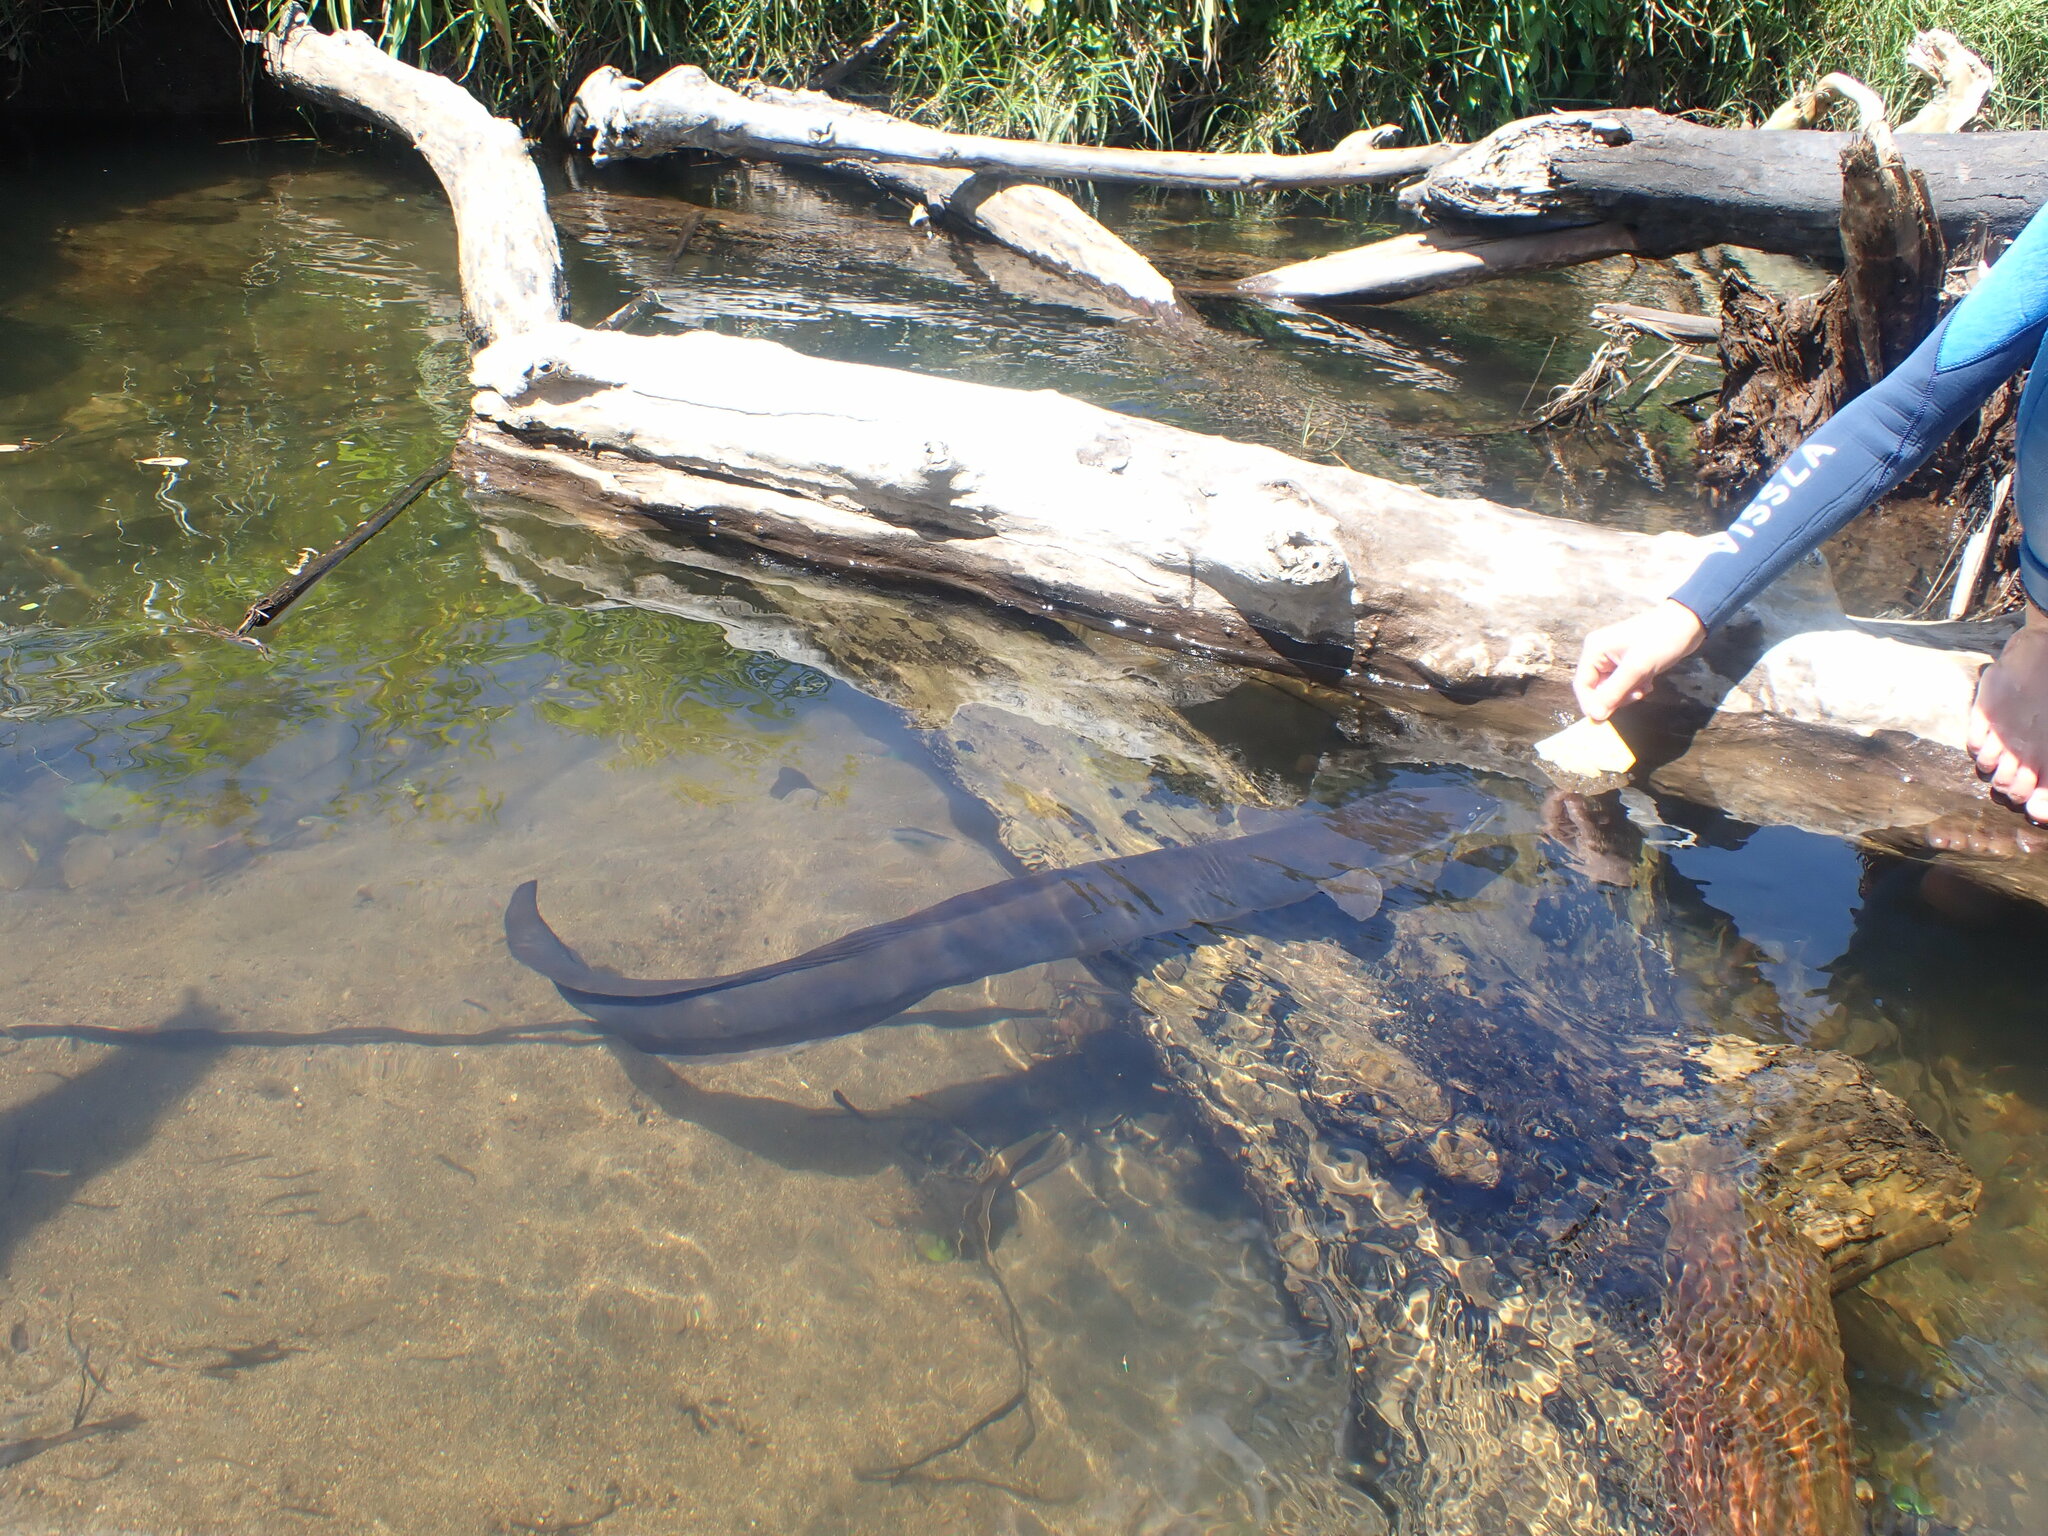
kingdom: Animalia
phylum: Chordata
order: Anguilliformes
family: Anguillidae
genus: Anguilla
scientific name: Anguilla dieffenbachii
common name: New zealand longfin eel
